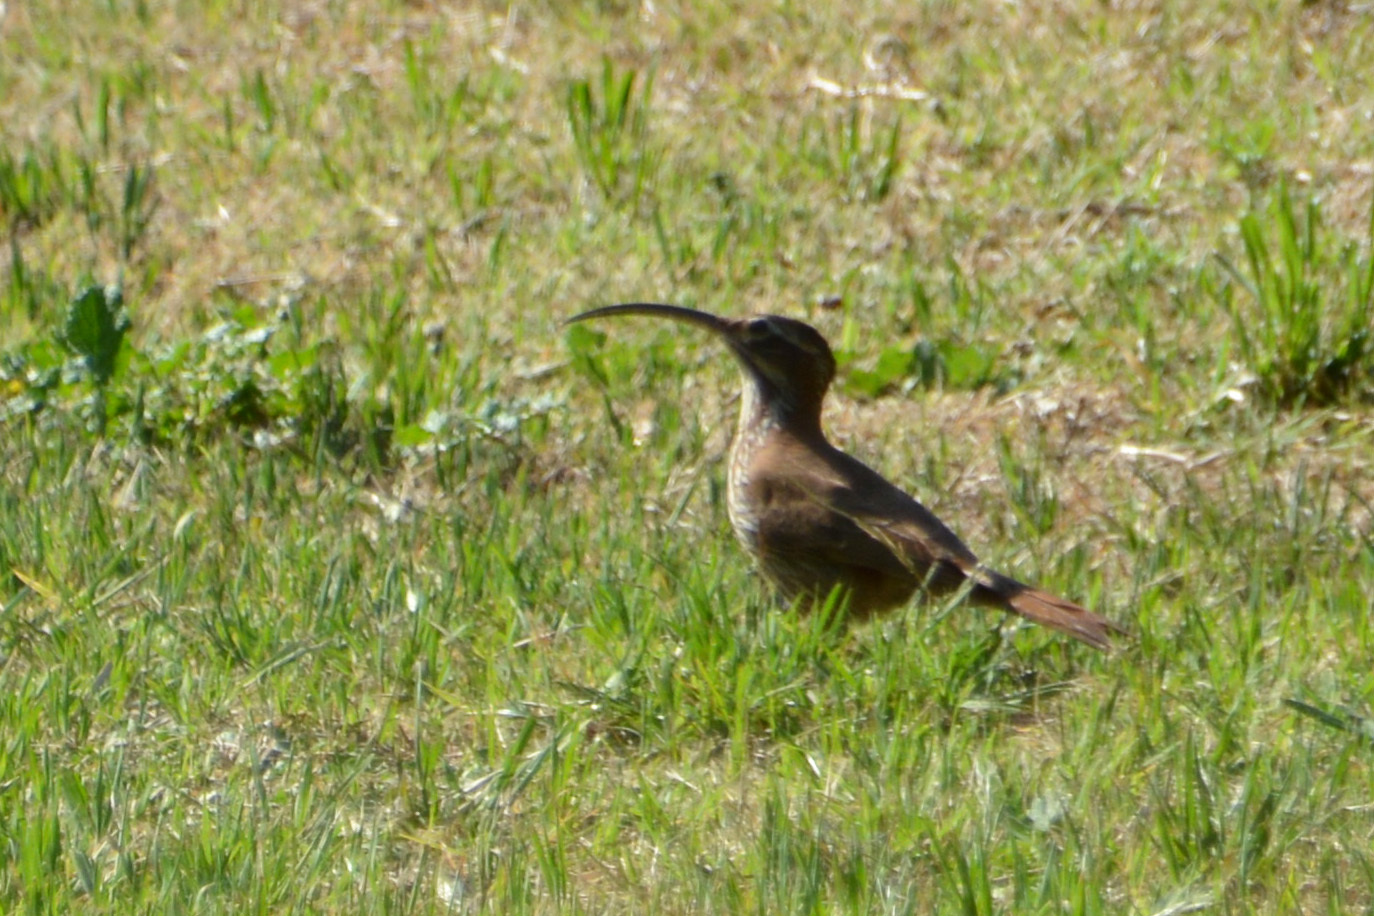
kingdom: Animalia
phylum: Chordata
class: Aves
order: Passeriformes
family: Furnariidae
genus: Drymornis
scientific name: Drymornis bridgesii
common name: Scimitar-billed woodcreeper
